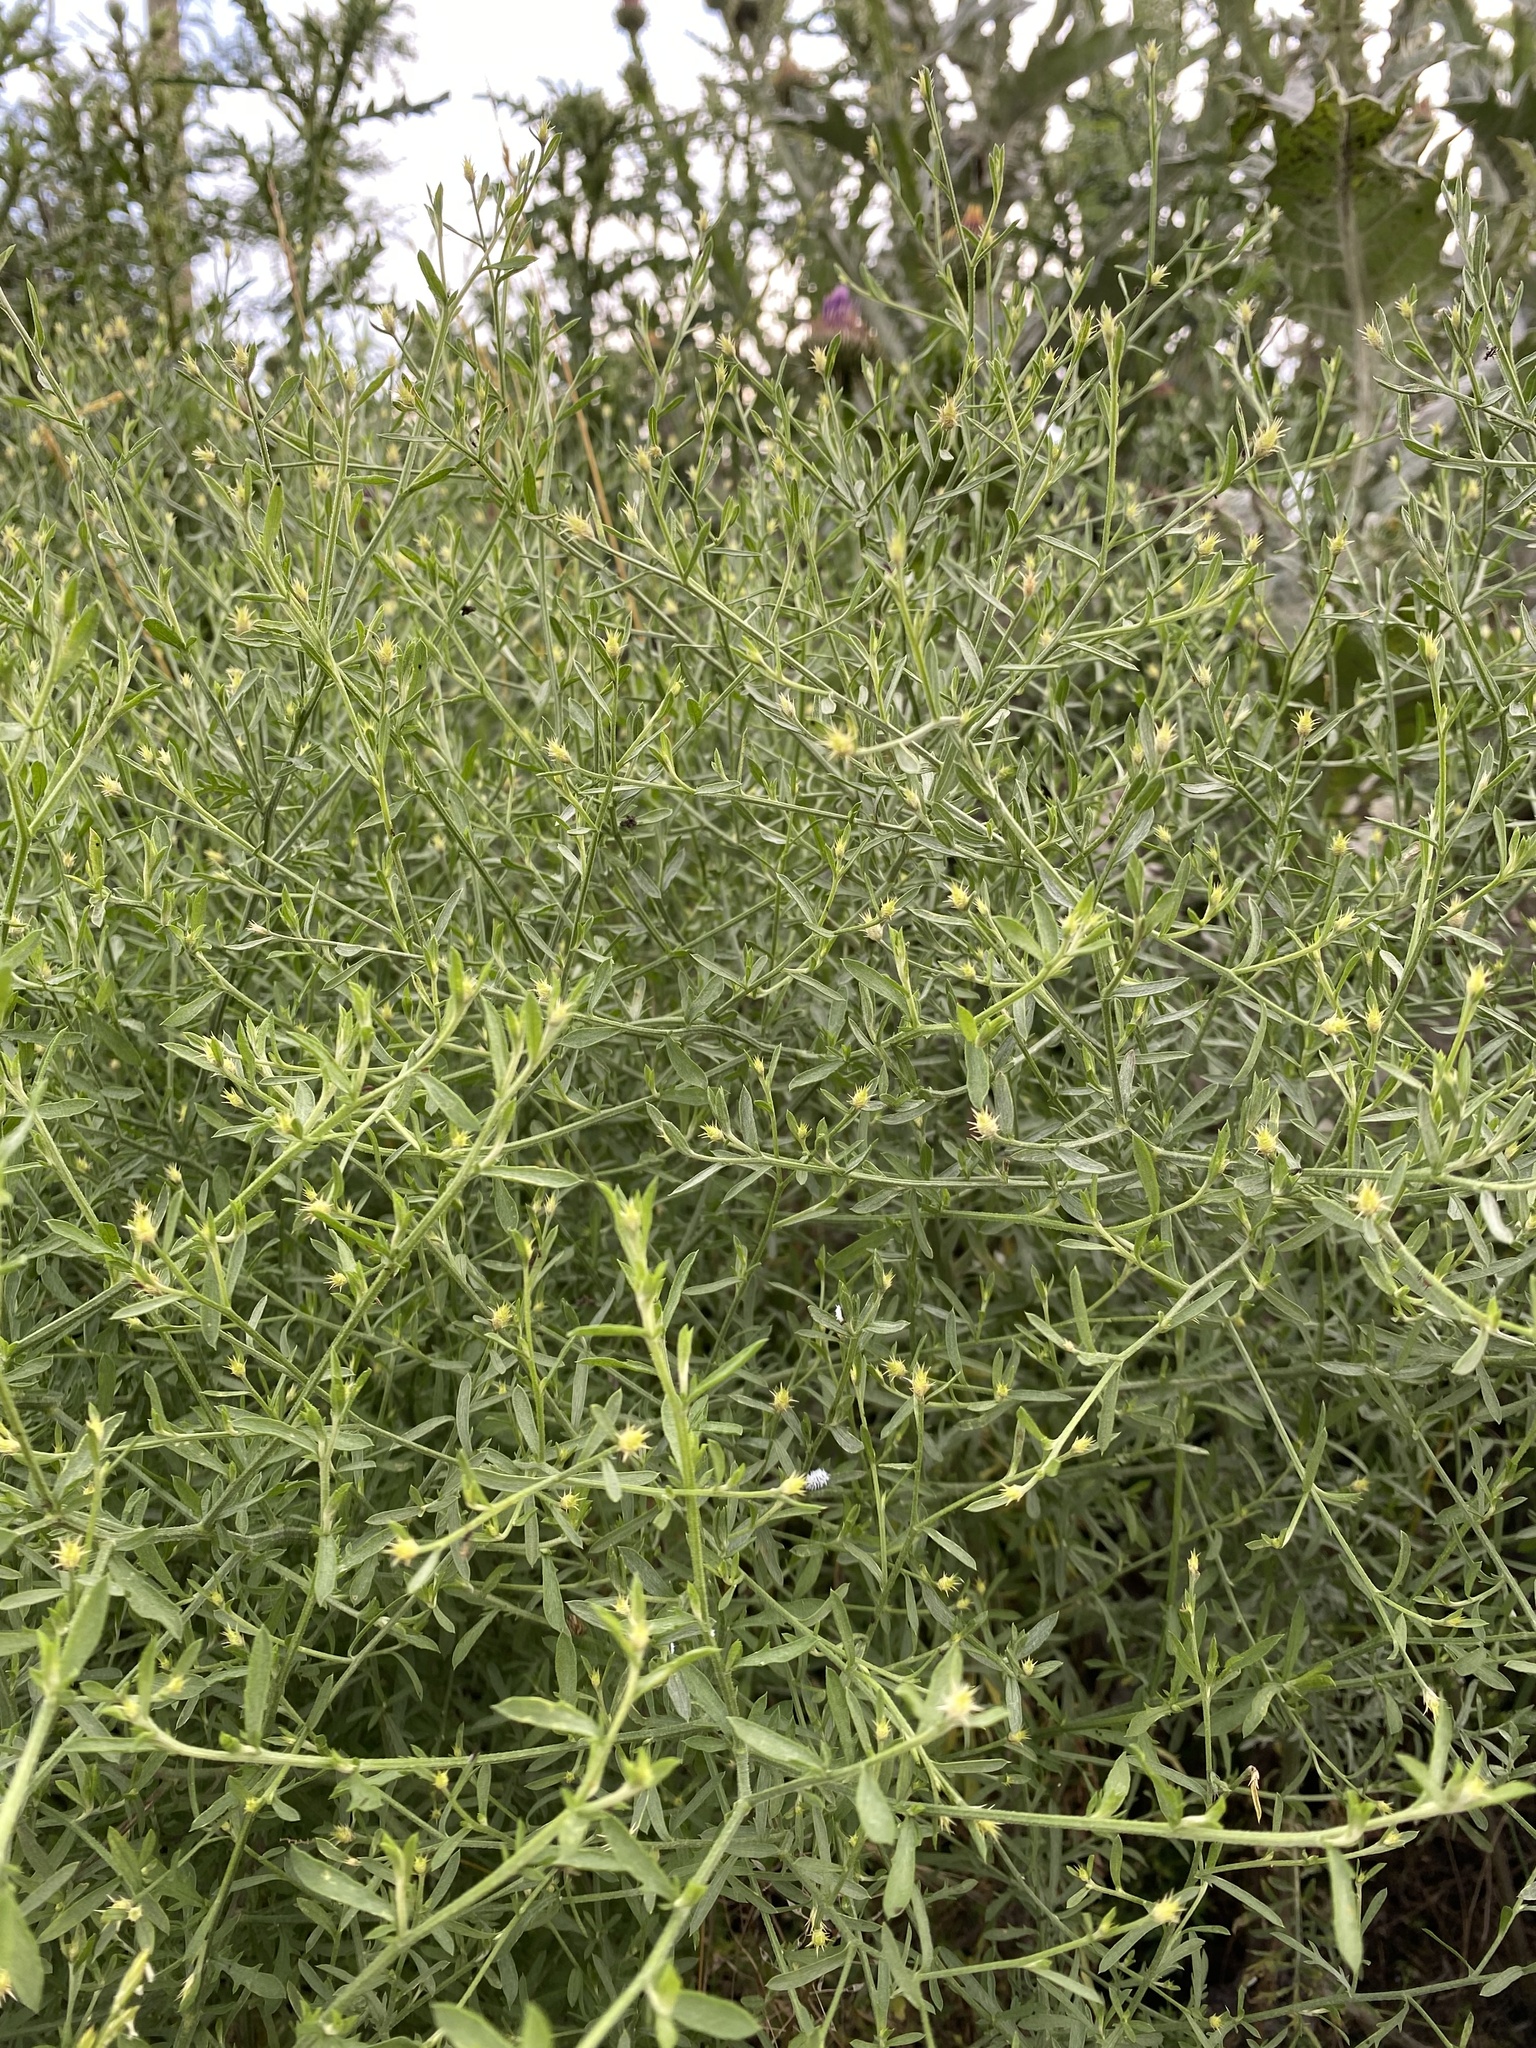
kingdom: Plantae
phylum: Tracheophyta
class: Magnoliopsida
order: Asterales
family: Asteraceae
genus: Centaurea
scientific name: Centaurea diffusa
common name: Diffuse knapweed
